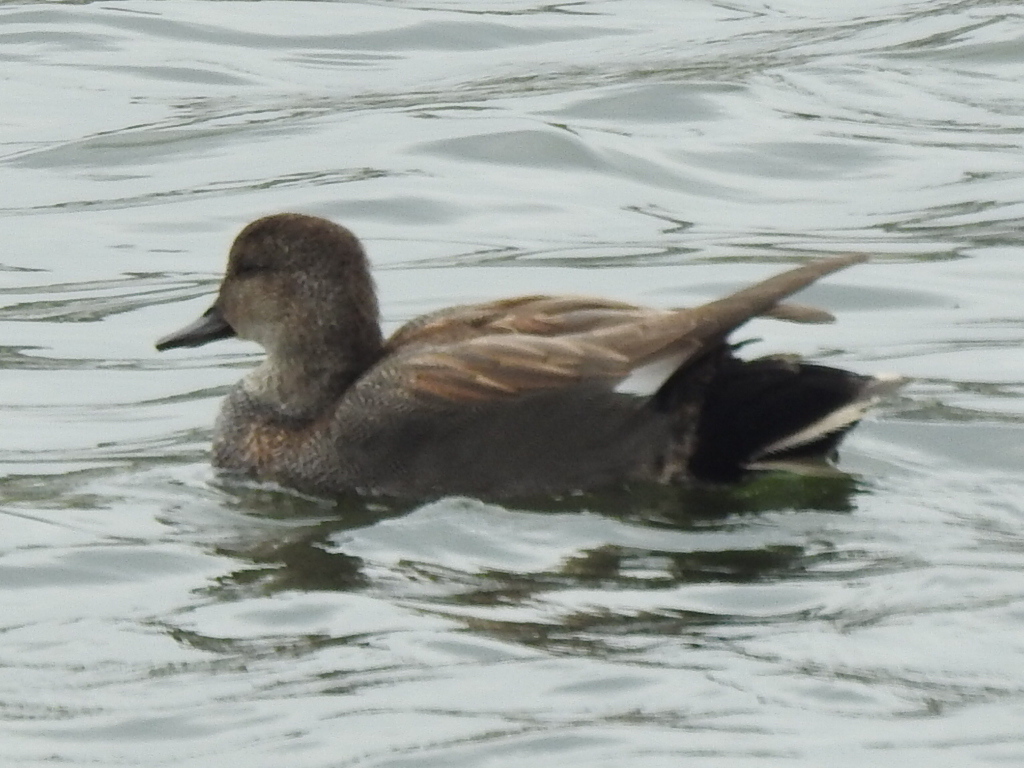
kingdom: Animalia
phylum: Chordata
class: Aves
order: Anseriformes
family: Anatidae
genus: Mareca
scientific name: Mareca strepera
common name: Gadwall
